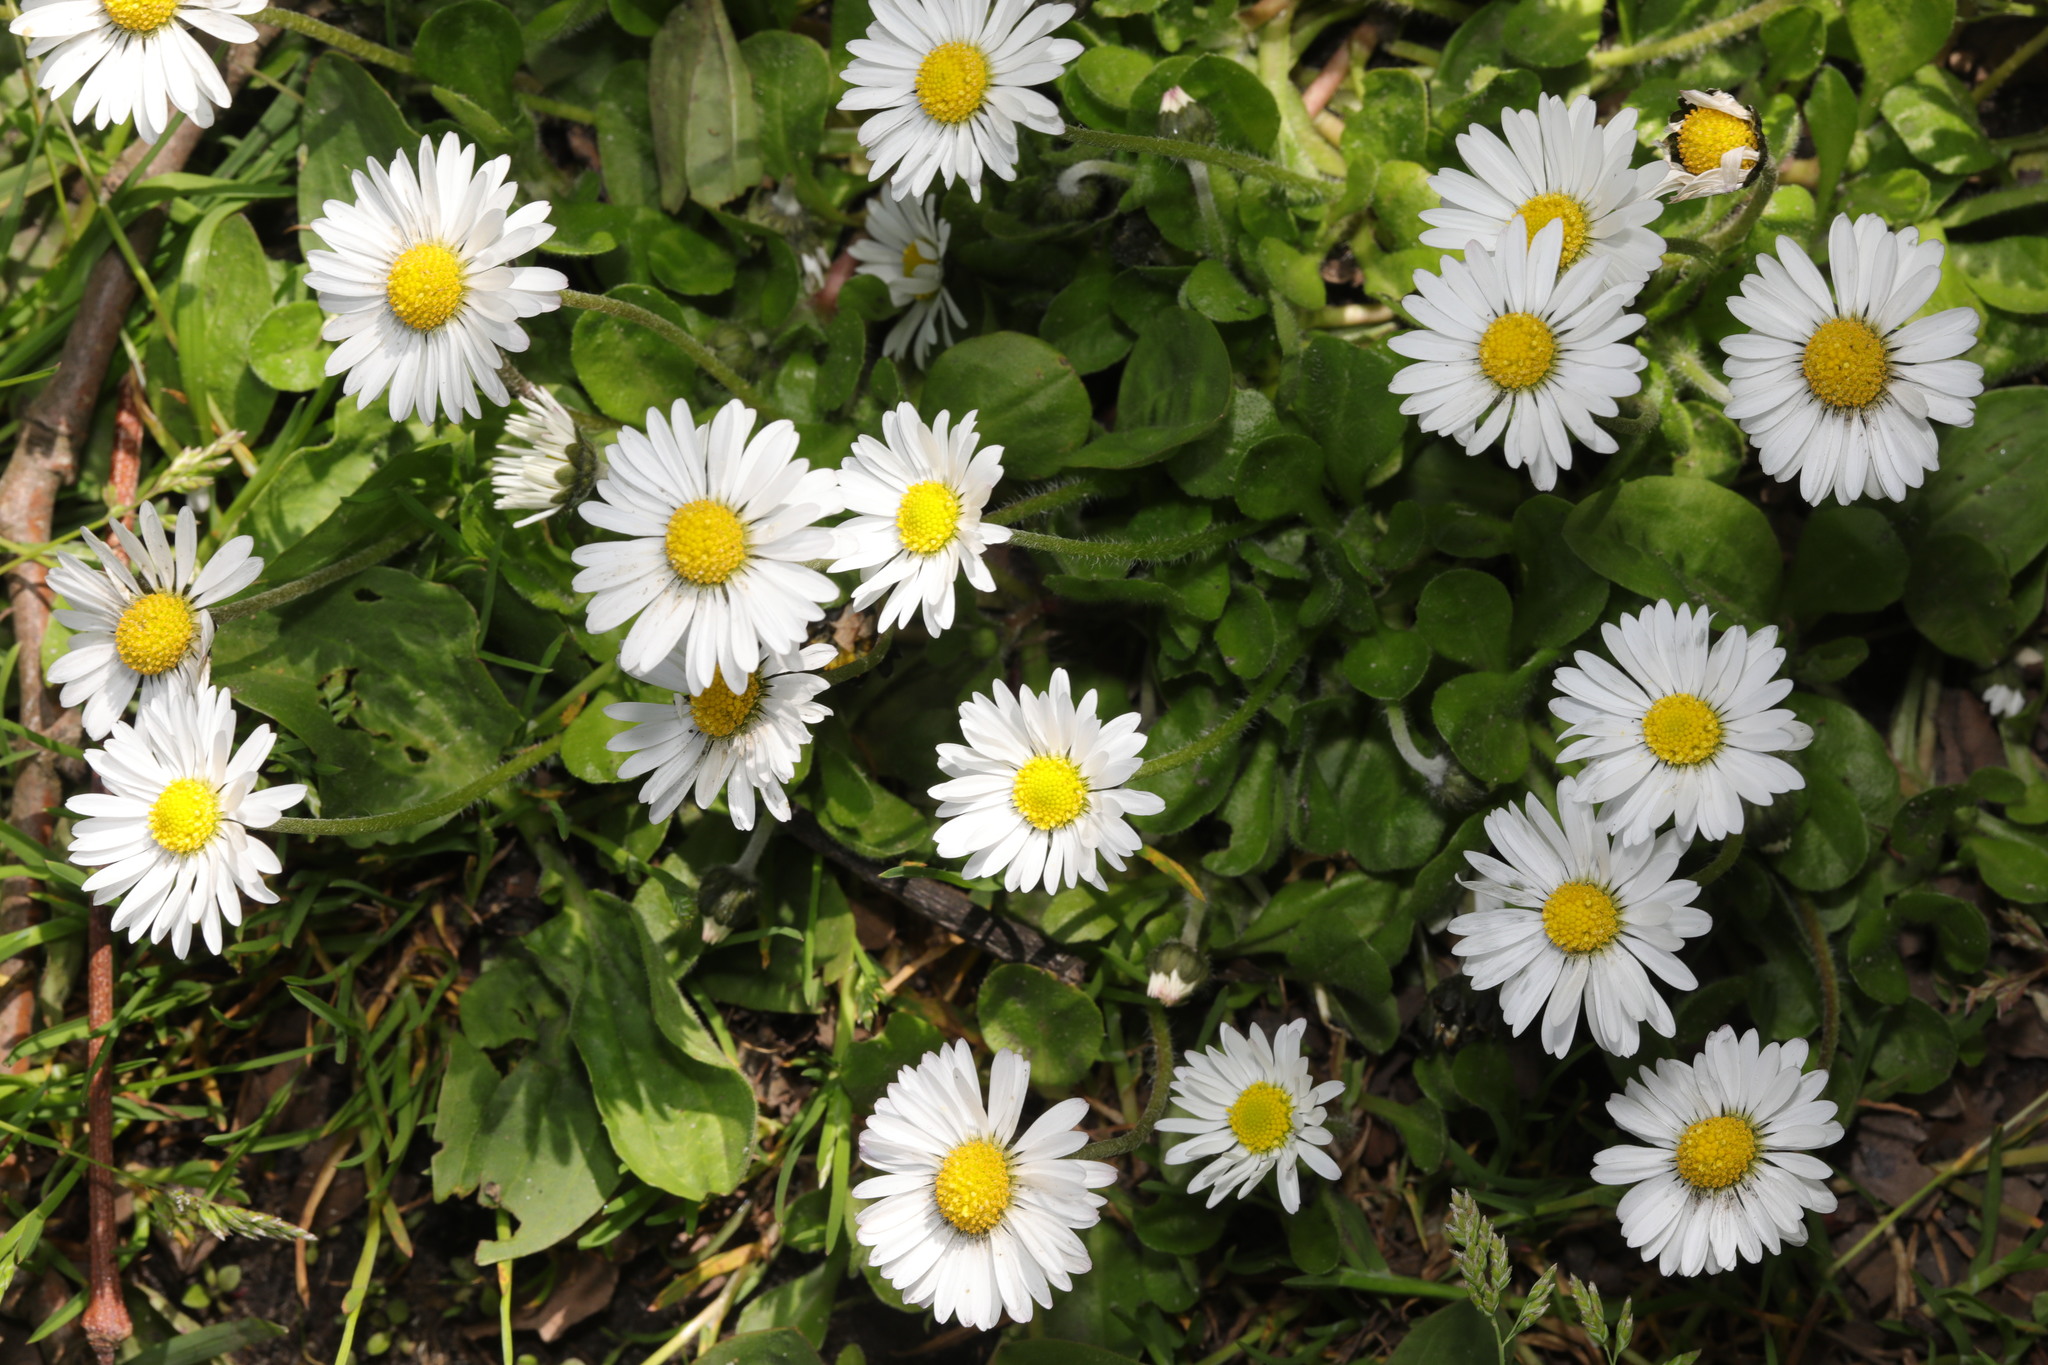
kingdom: Plantae
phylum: Tracheophyta
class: Magnoliopsida
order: Asterales
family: Asteraceae
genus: Bellis
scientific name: Bellis perennis
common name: Lawndaisy
